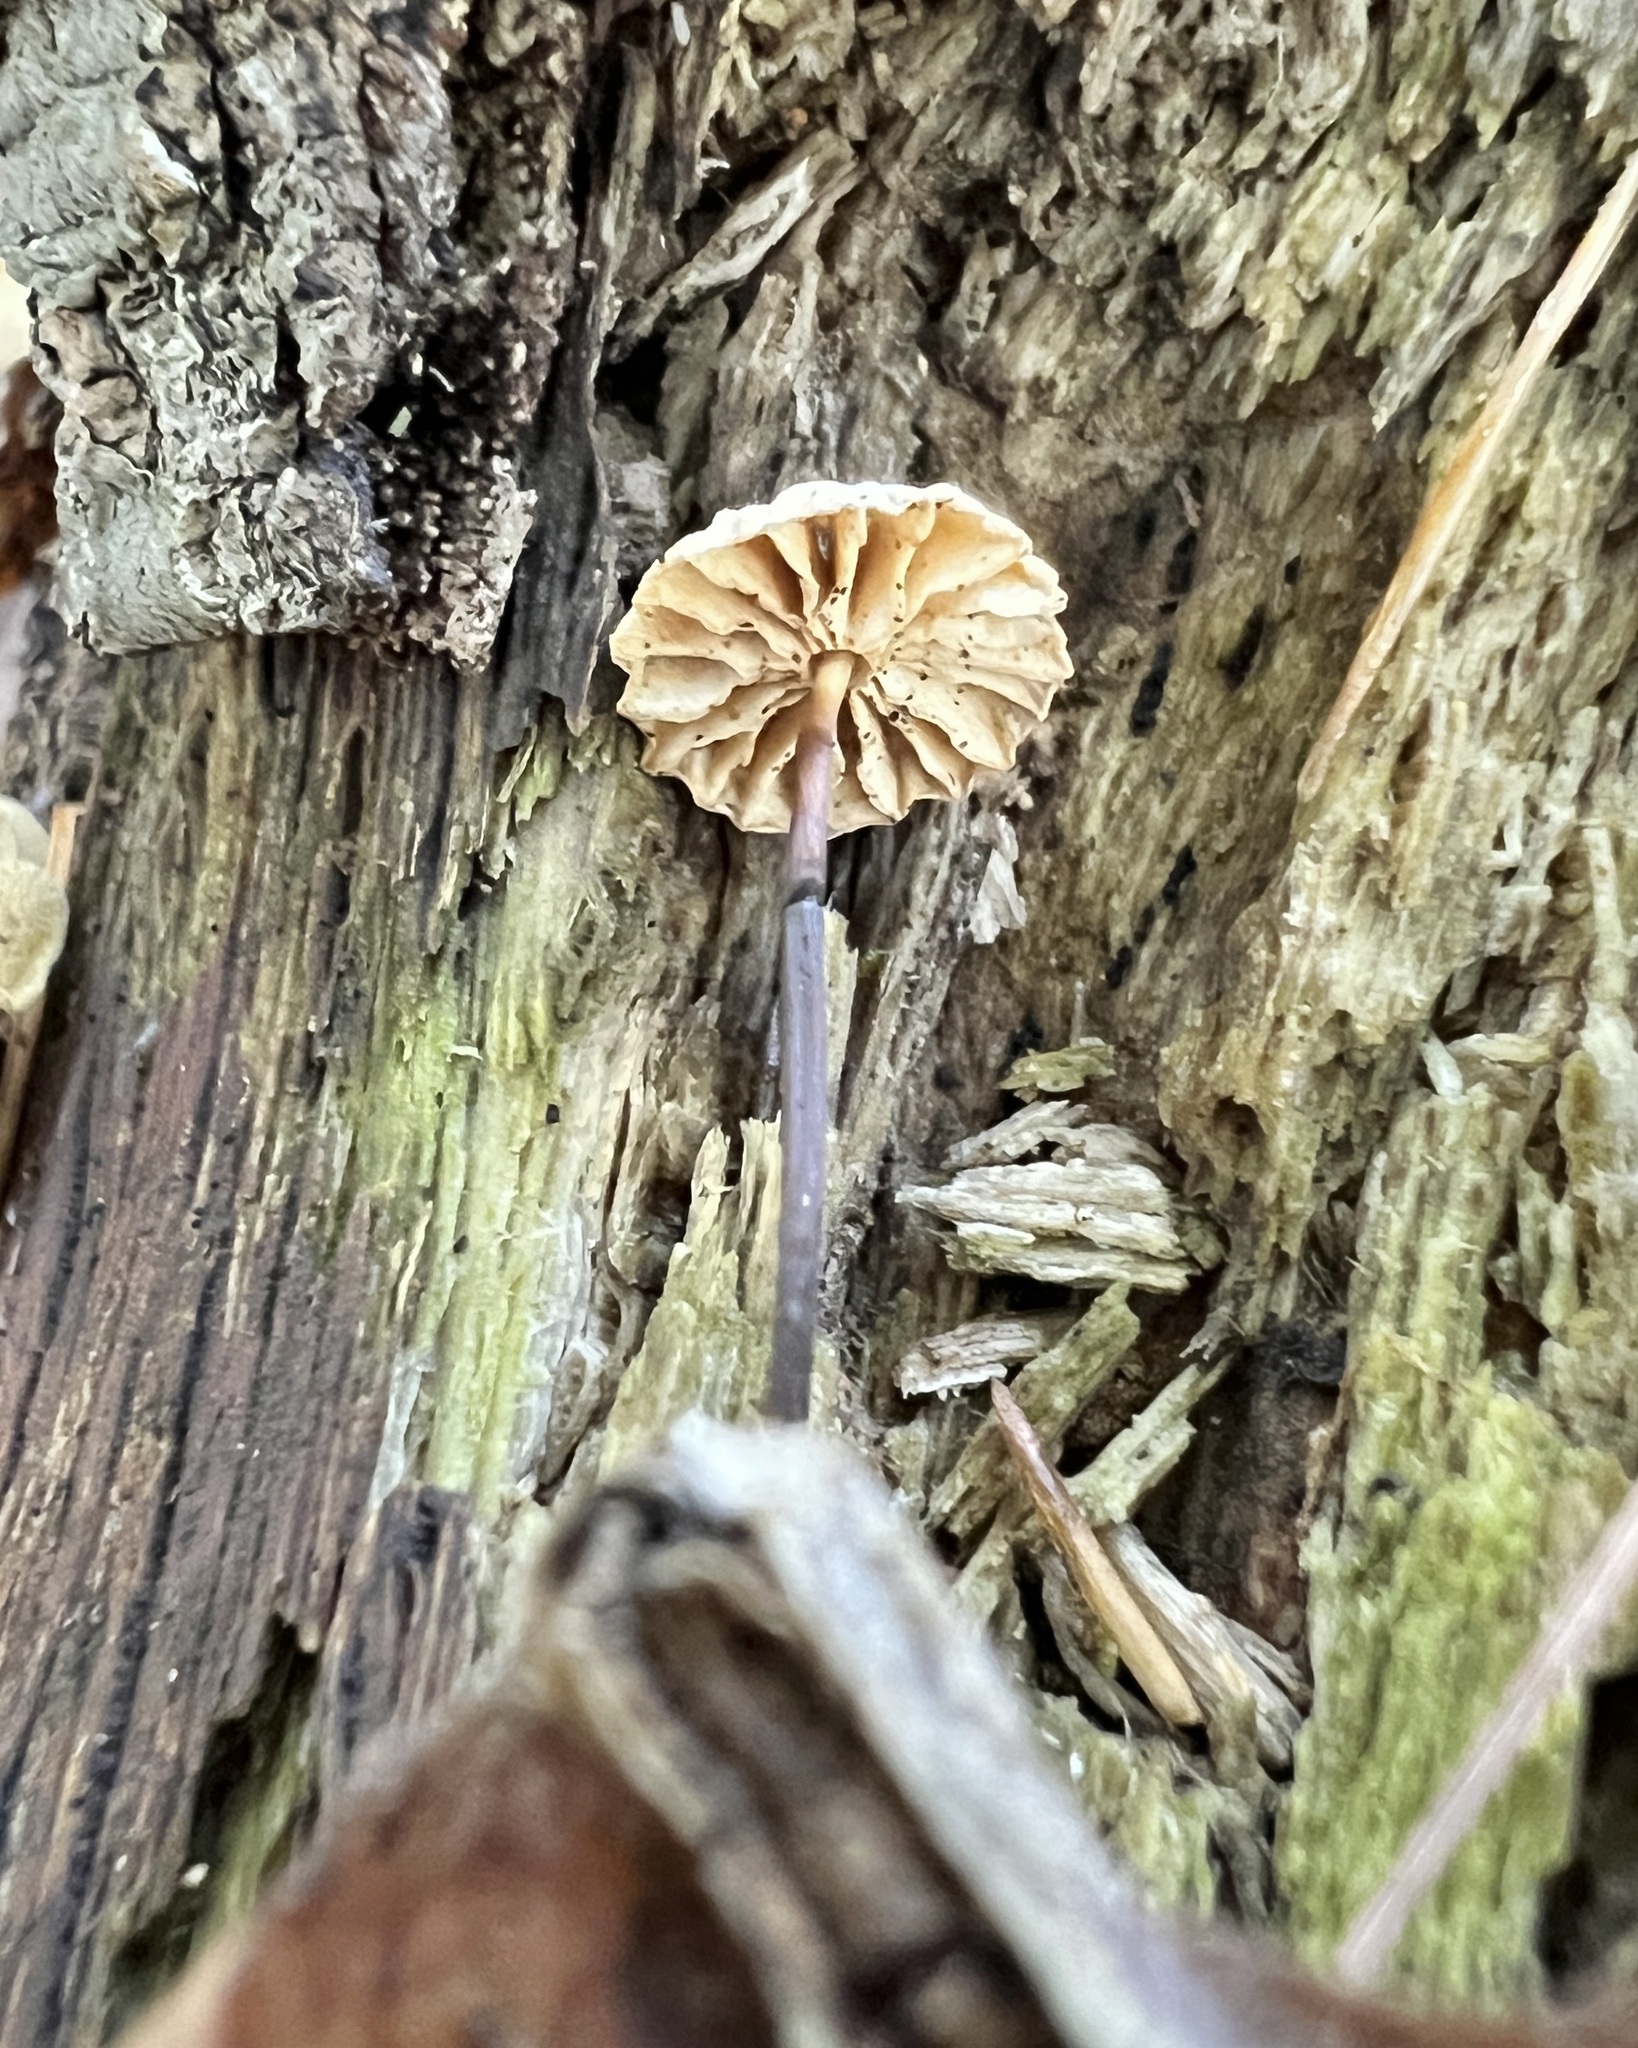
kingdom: Fungi
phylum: Basidiomycota
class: Agaricomycetes
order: Agaricales
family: Marasmiaceae
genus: Marasmius
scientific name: Marasmius capillaris
